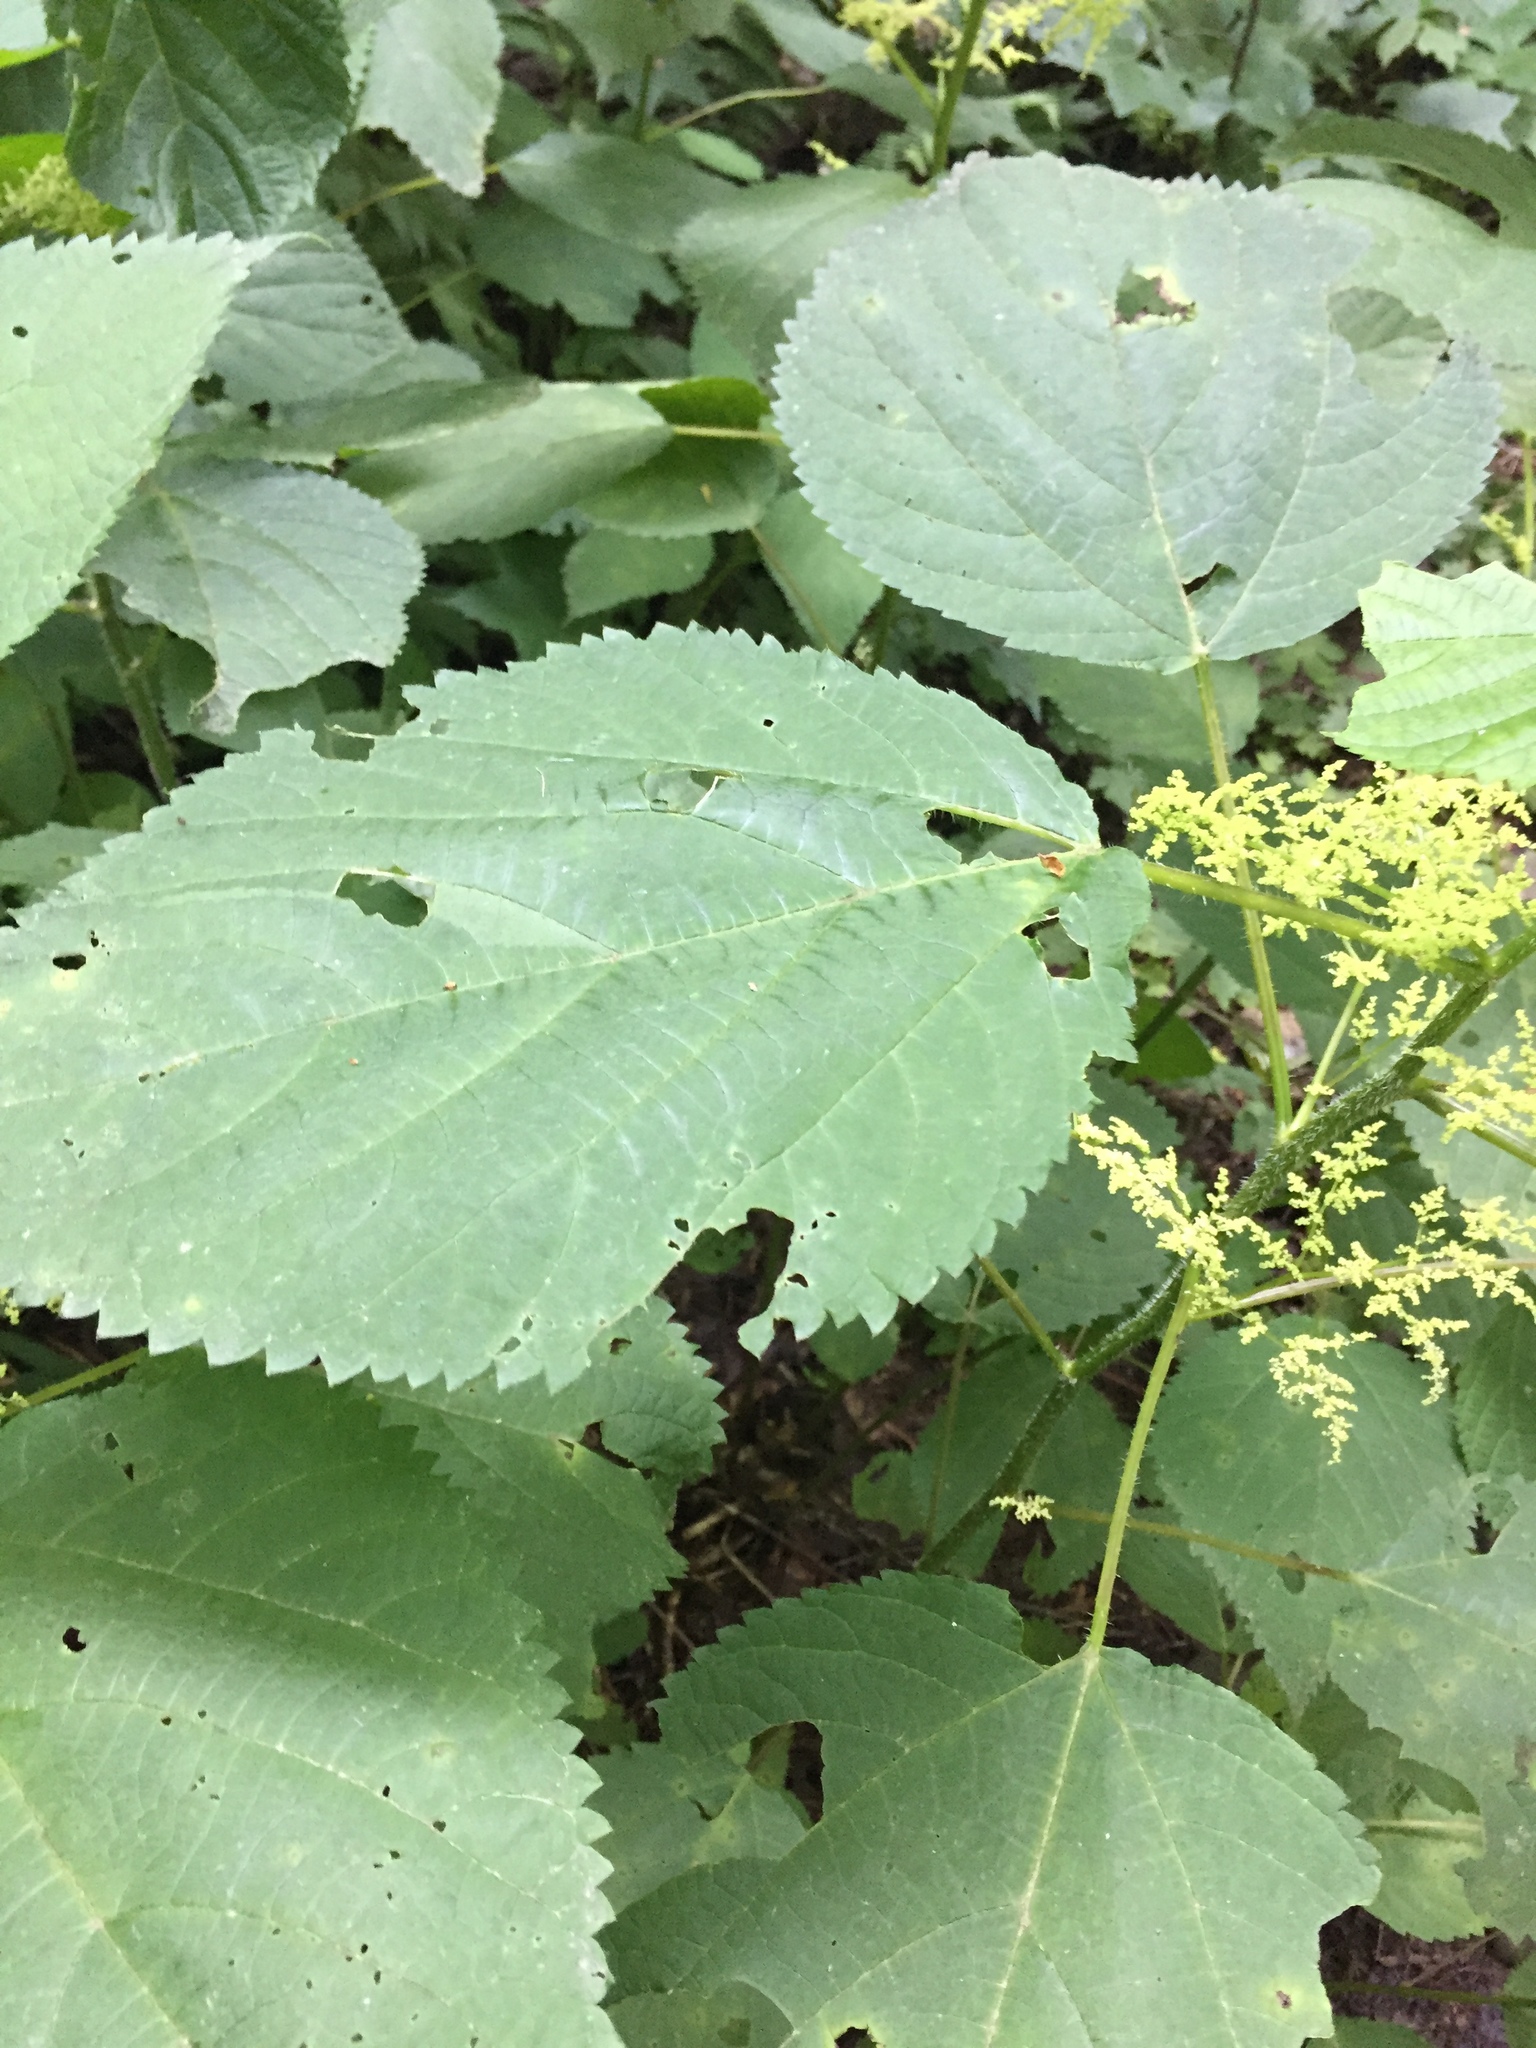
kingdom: Plantae
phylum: Tracheophyta
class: Magnoliopsida
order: Rosales
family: Urticaceae
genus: Laportea
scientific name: Laportea canadensis
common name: Canada nettle
